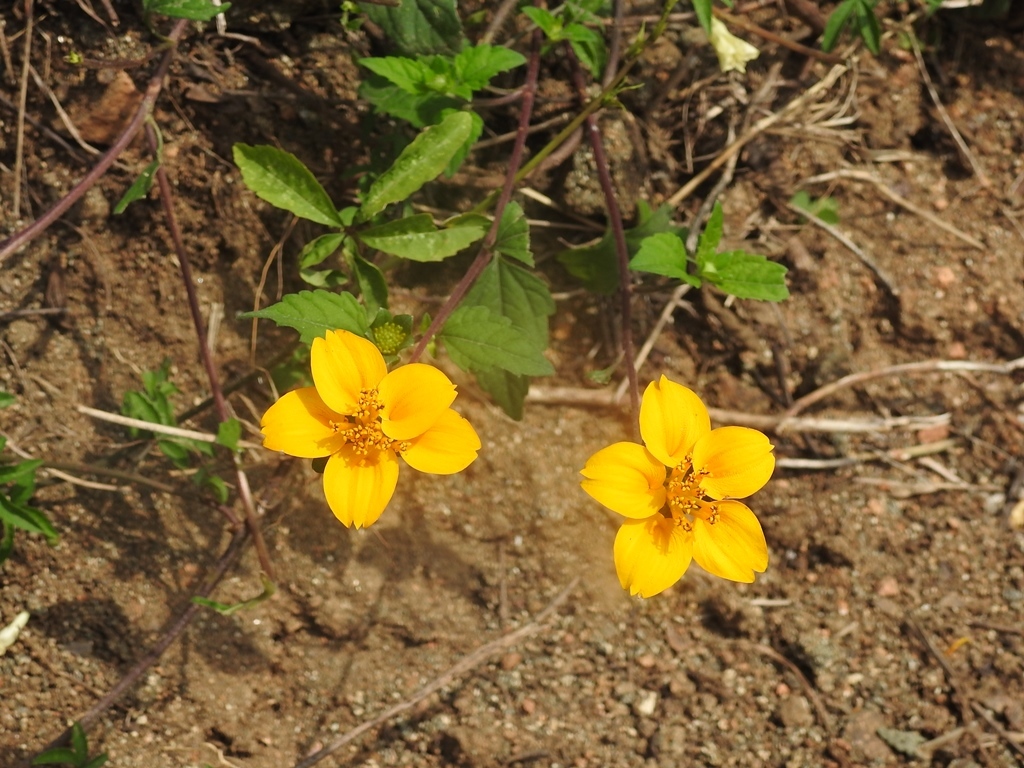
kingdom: Plantae
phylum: Tracheophyta
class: Magnoliopsida
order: Asterales
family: Asteraceae
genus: Sclerocarpus
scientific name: Sclerocarpus divaricatus
